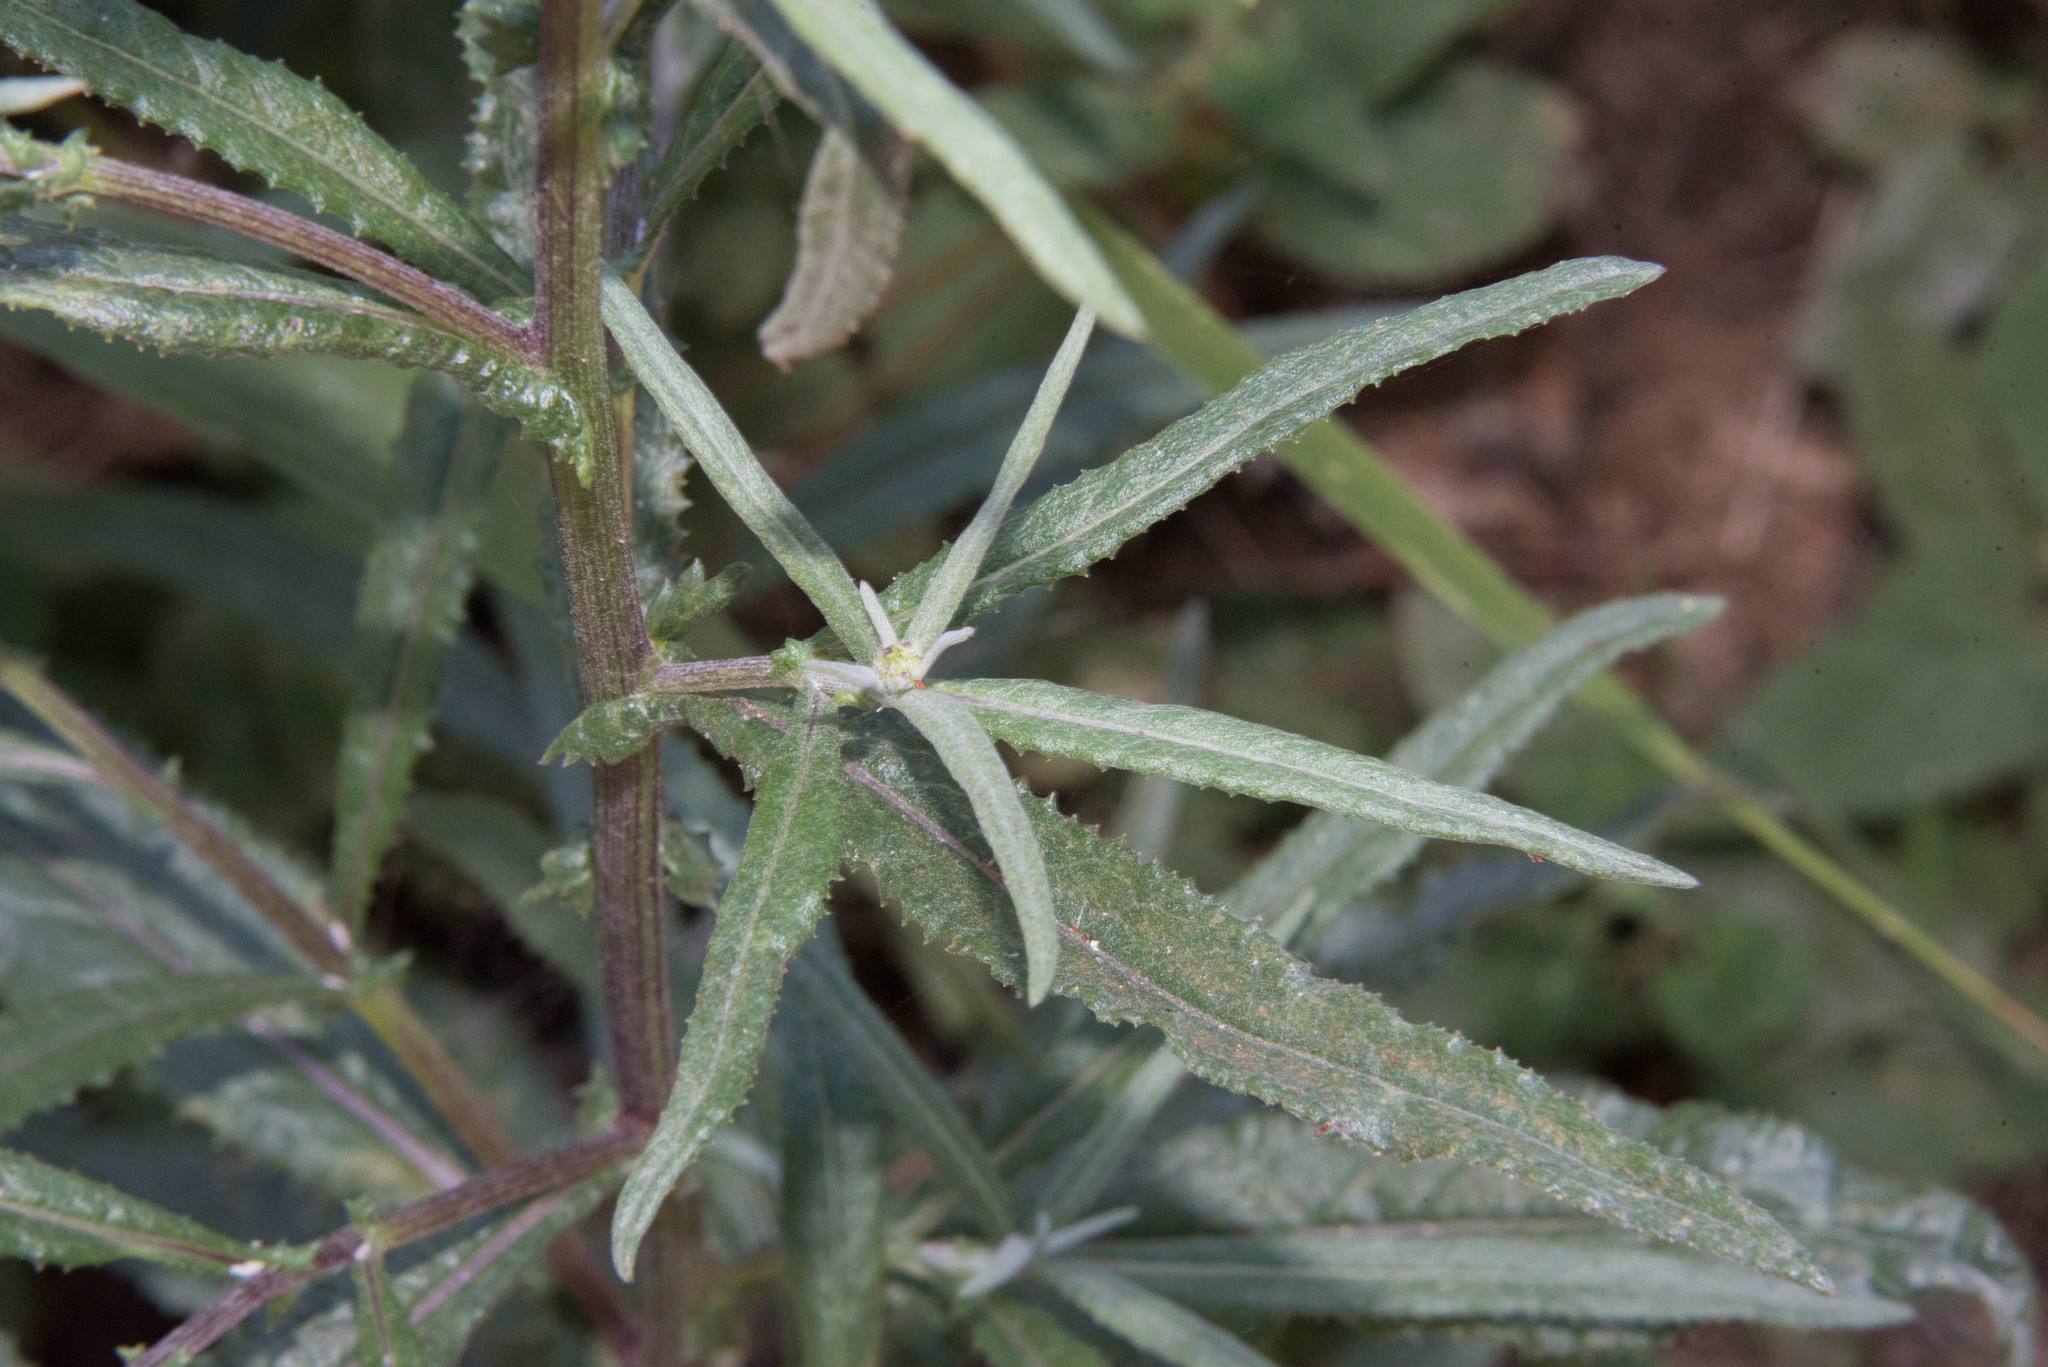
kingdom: Plantae
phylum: Tracheophyta
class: Magnoliopsida
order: Asterales
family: Asteraceae
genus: Senecio
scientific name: Senecio minimus
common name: Toothed fireweed
